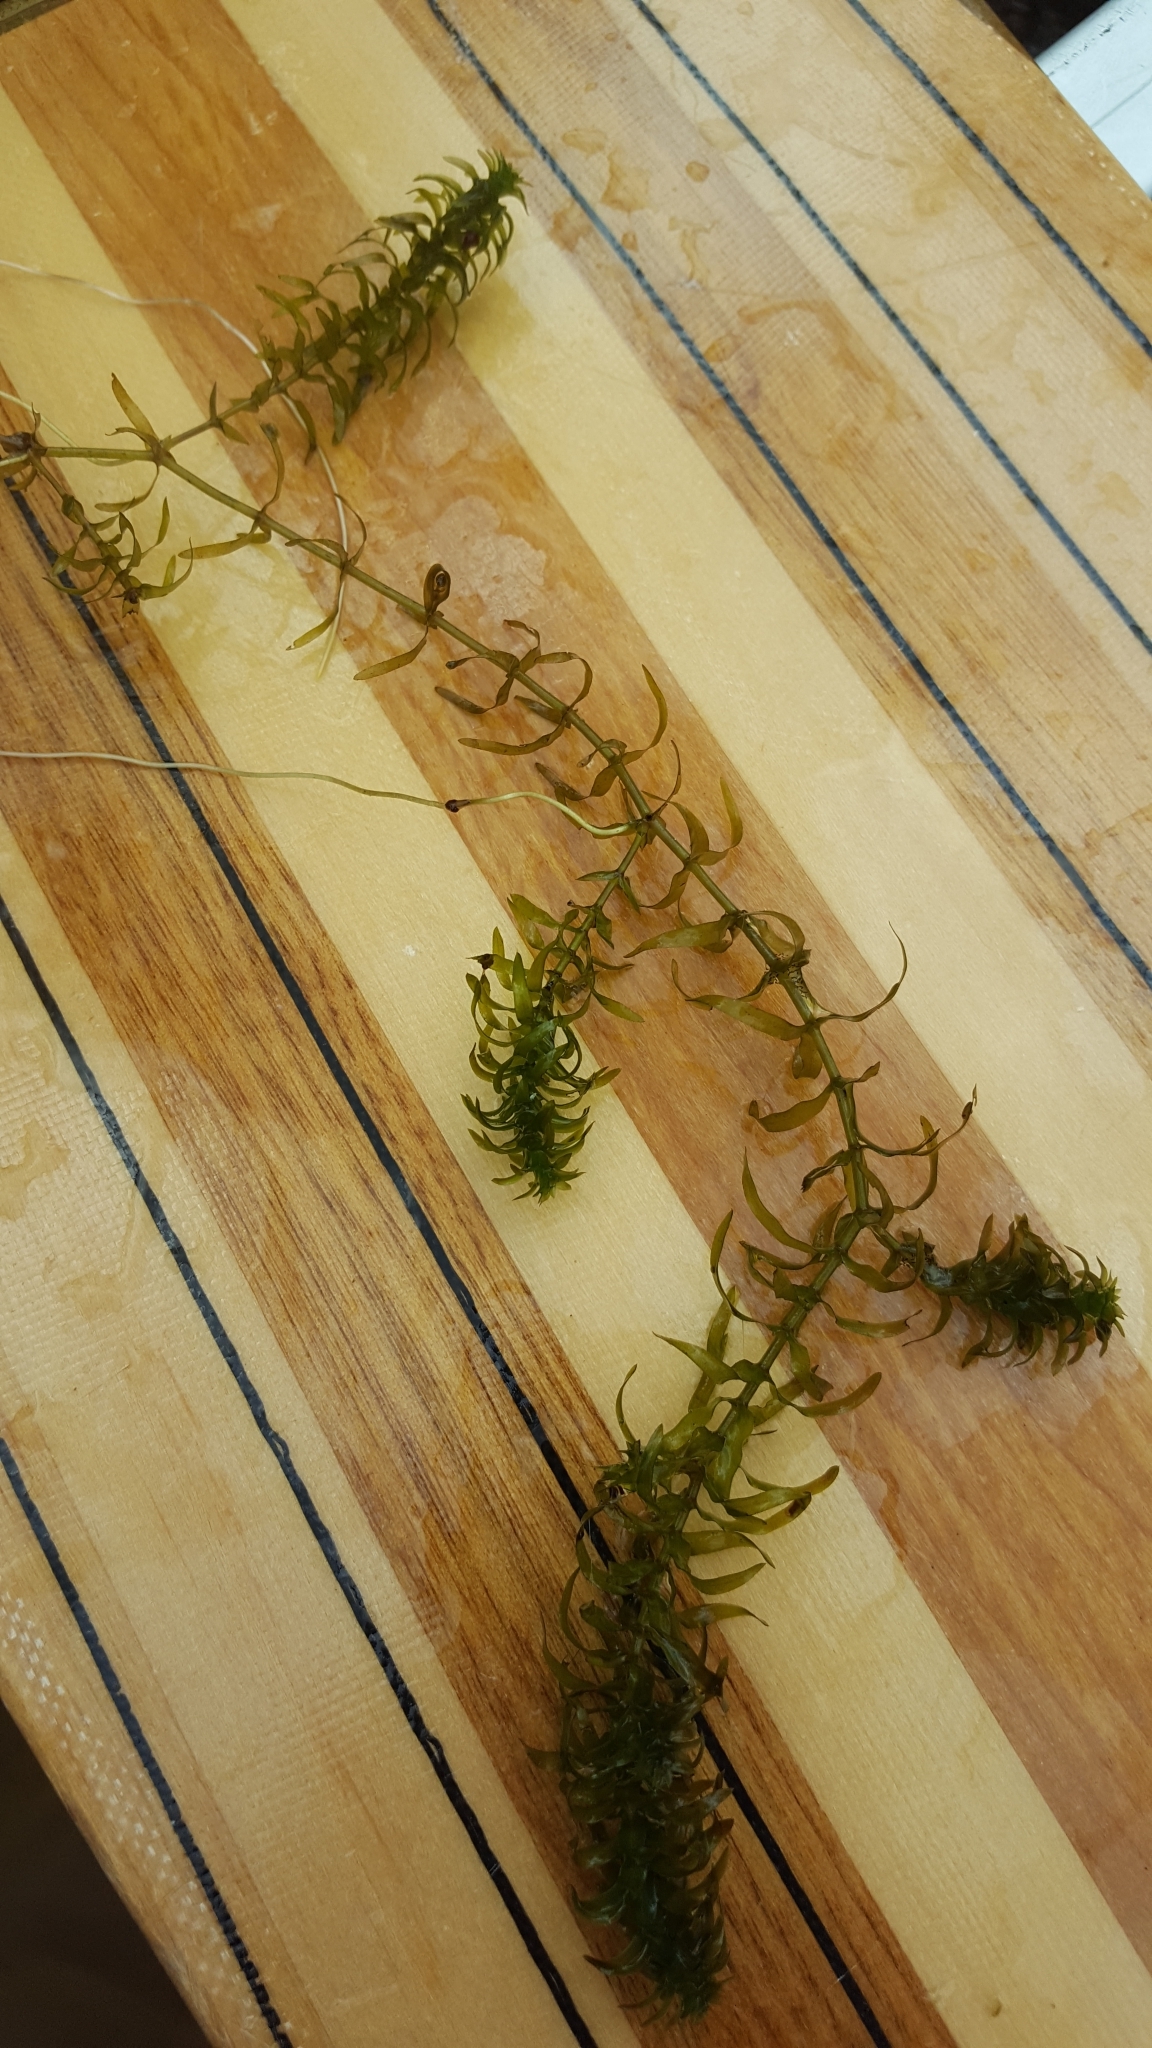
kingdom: Plantae
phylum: Tracheophyta
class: Liliopsida
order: Alismatales
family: Hydrocharitaceae
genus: Elodea
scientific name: Elodea canadensis
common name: Canadian waterweed
